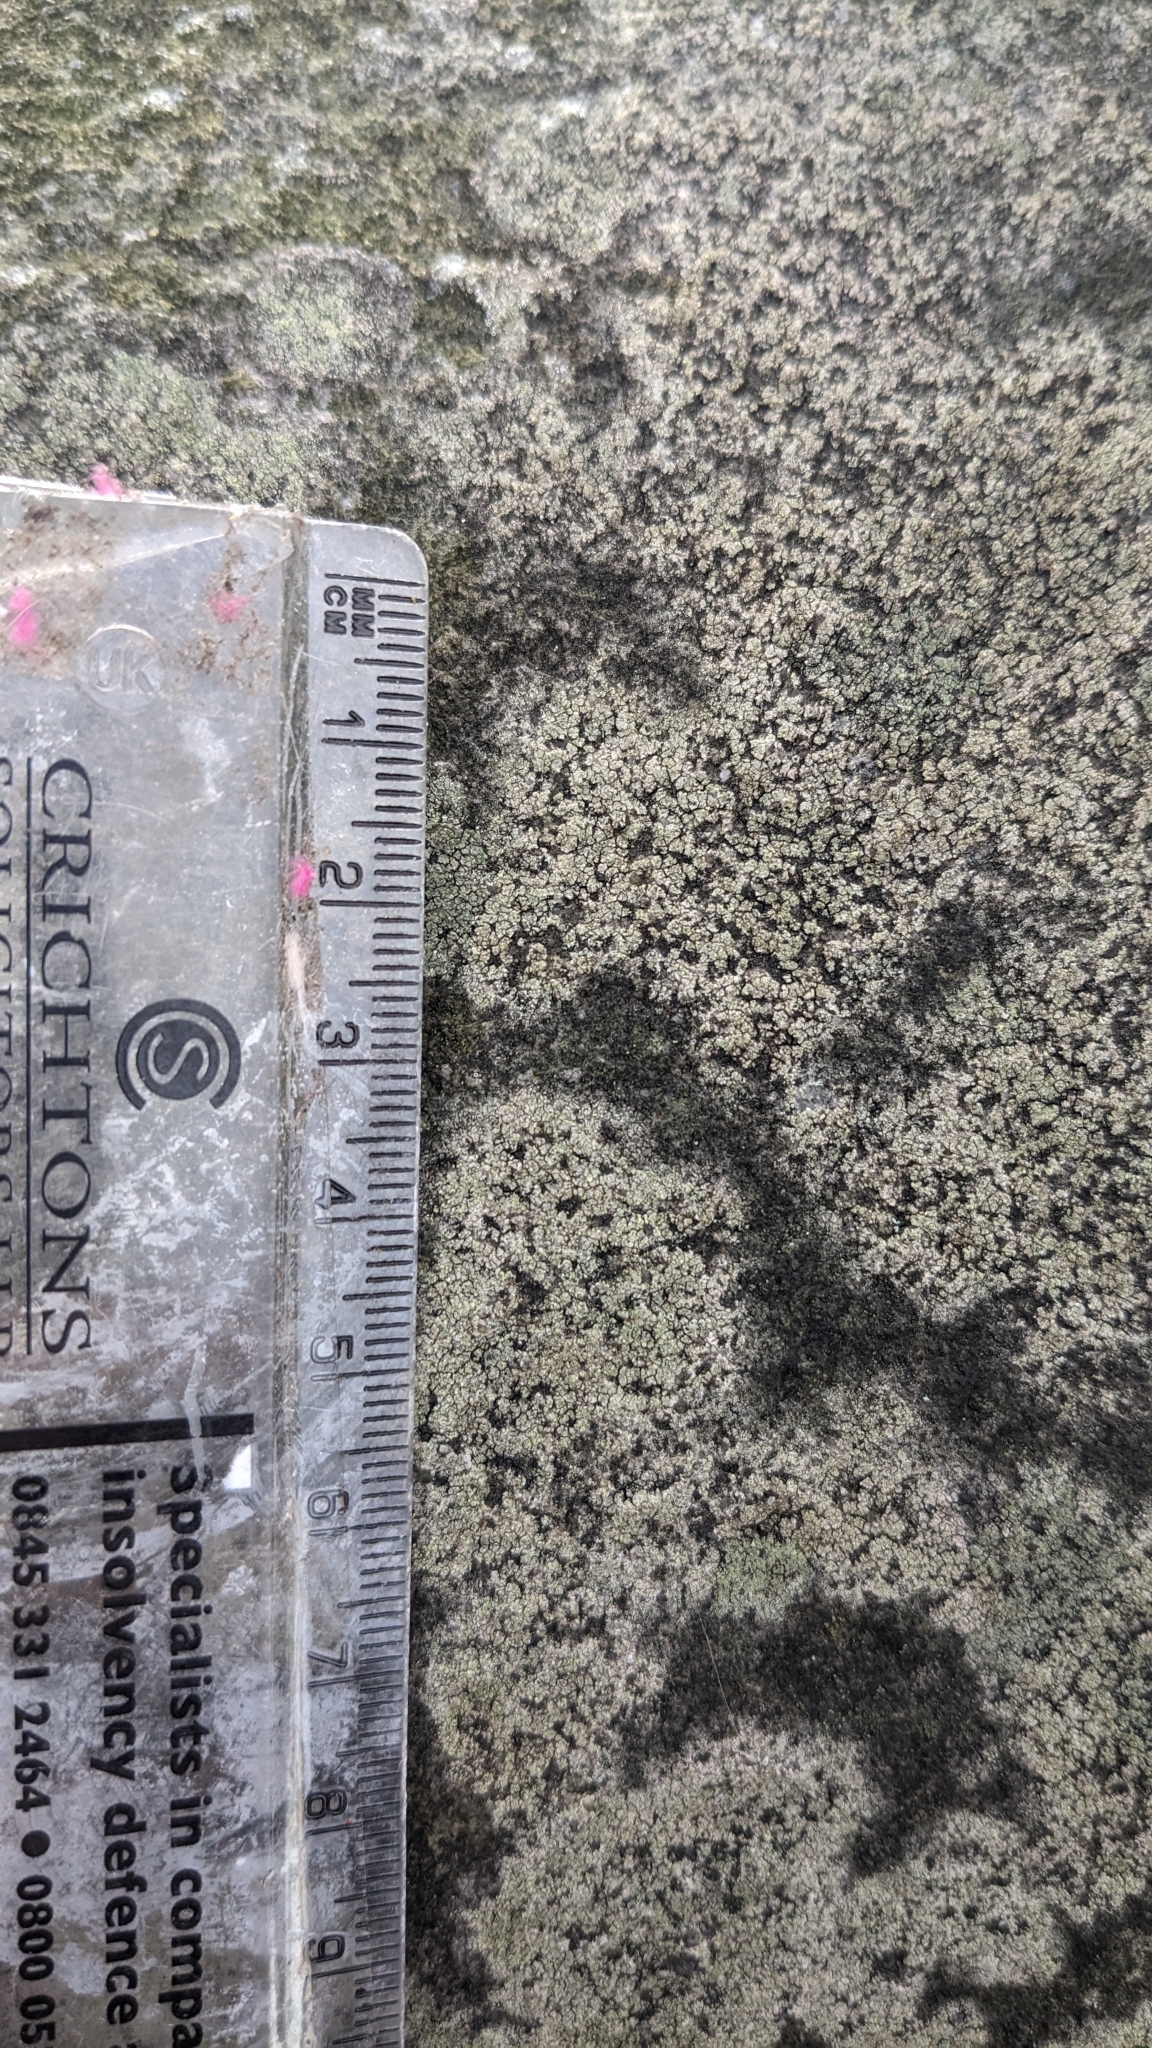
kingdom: Fungi
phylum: Ascomycota
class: Lecanoromycetes
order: Lecanorales
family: Lecanoraceae
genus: Lecidella
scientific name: Lecidella scabra
